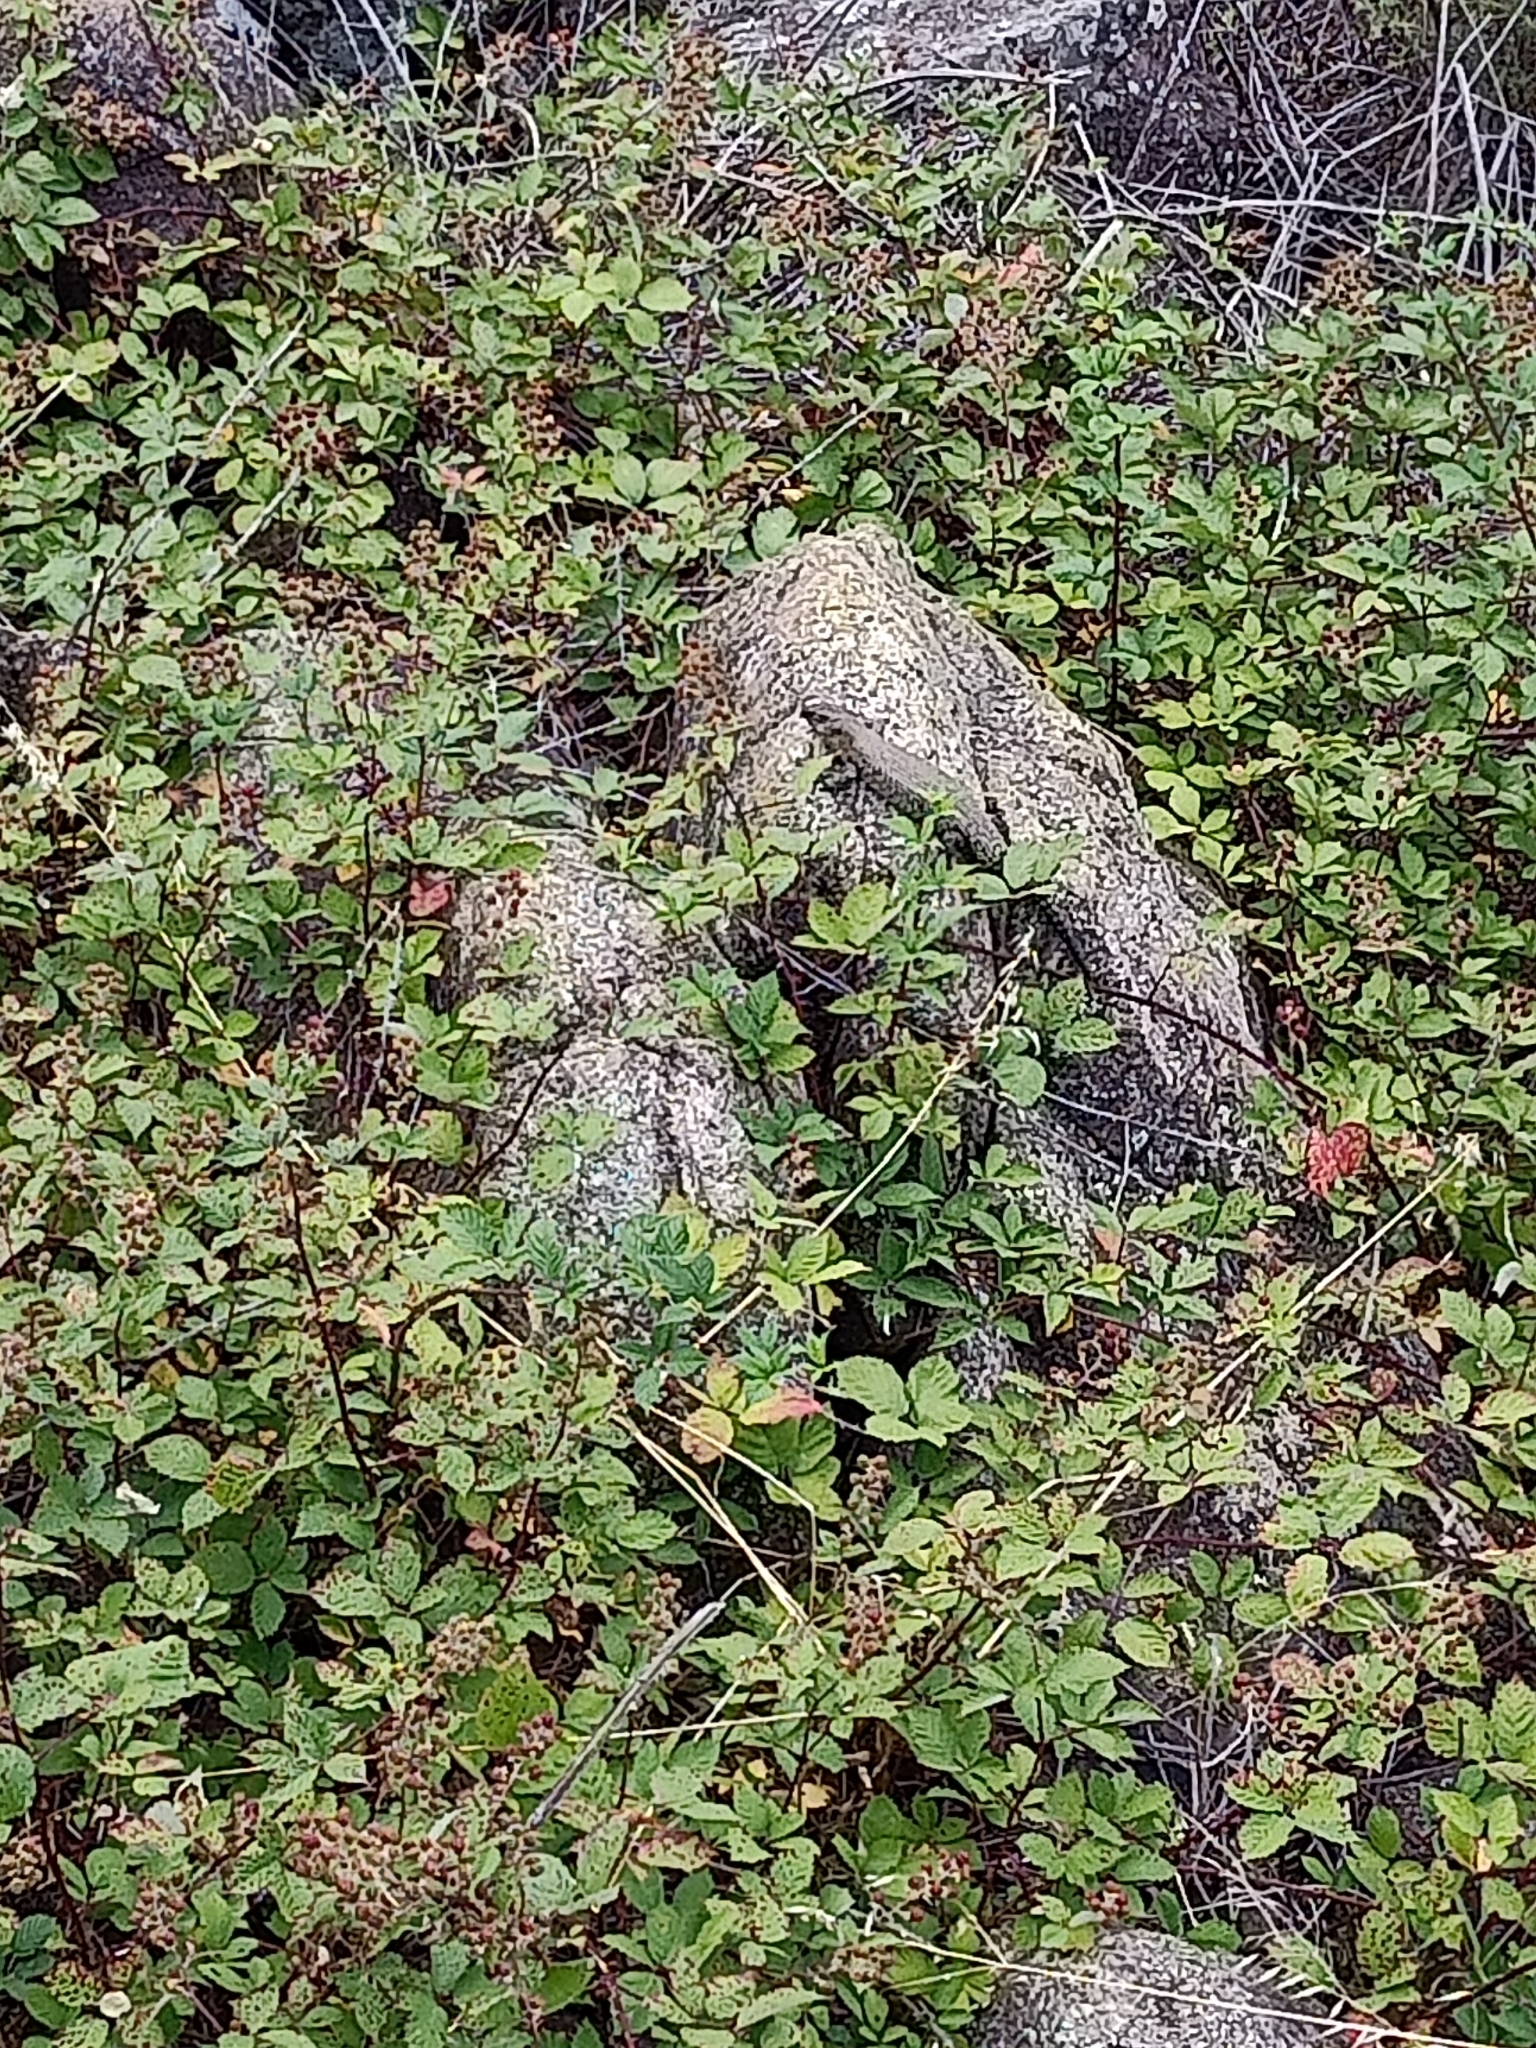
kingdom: Animalia
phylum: Chordata
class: Squamata
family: Scincidae
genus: Egernia
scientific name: Egernia cunninghami
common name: Cunningham's skink
